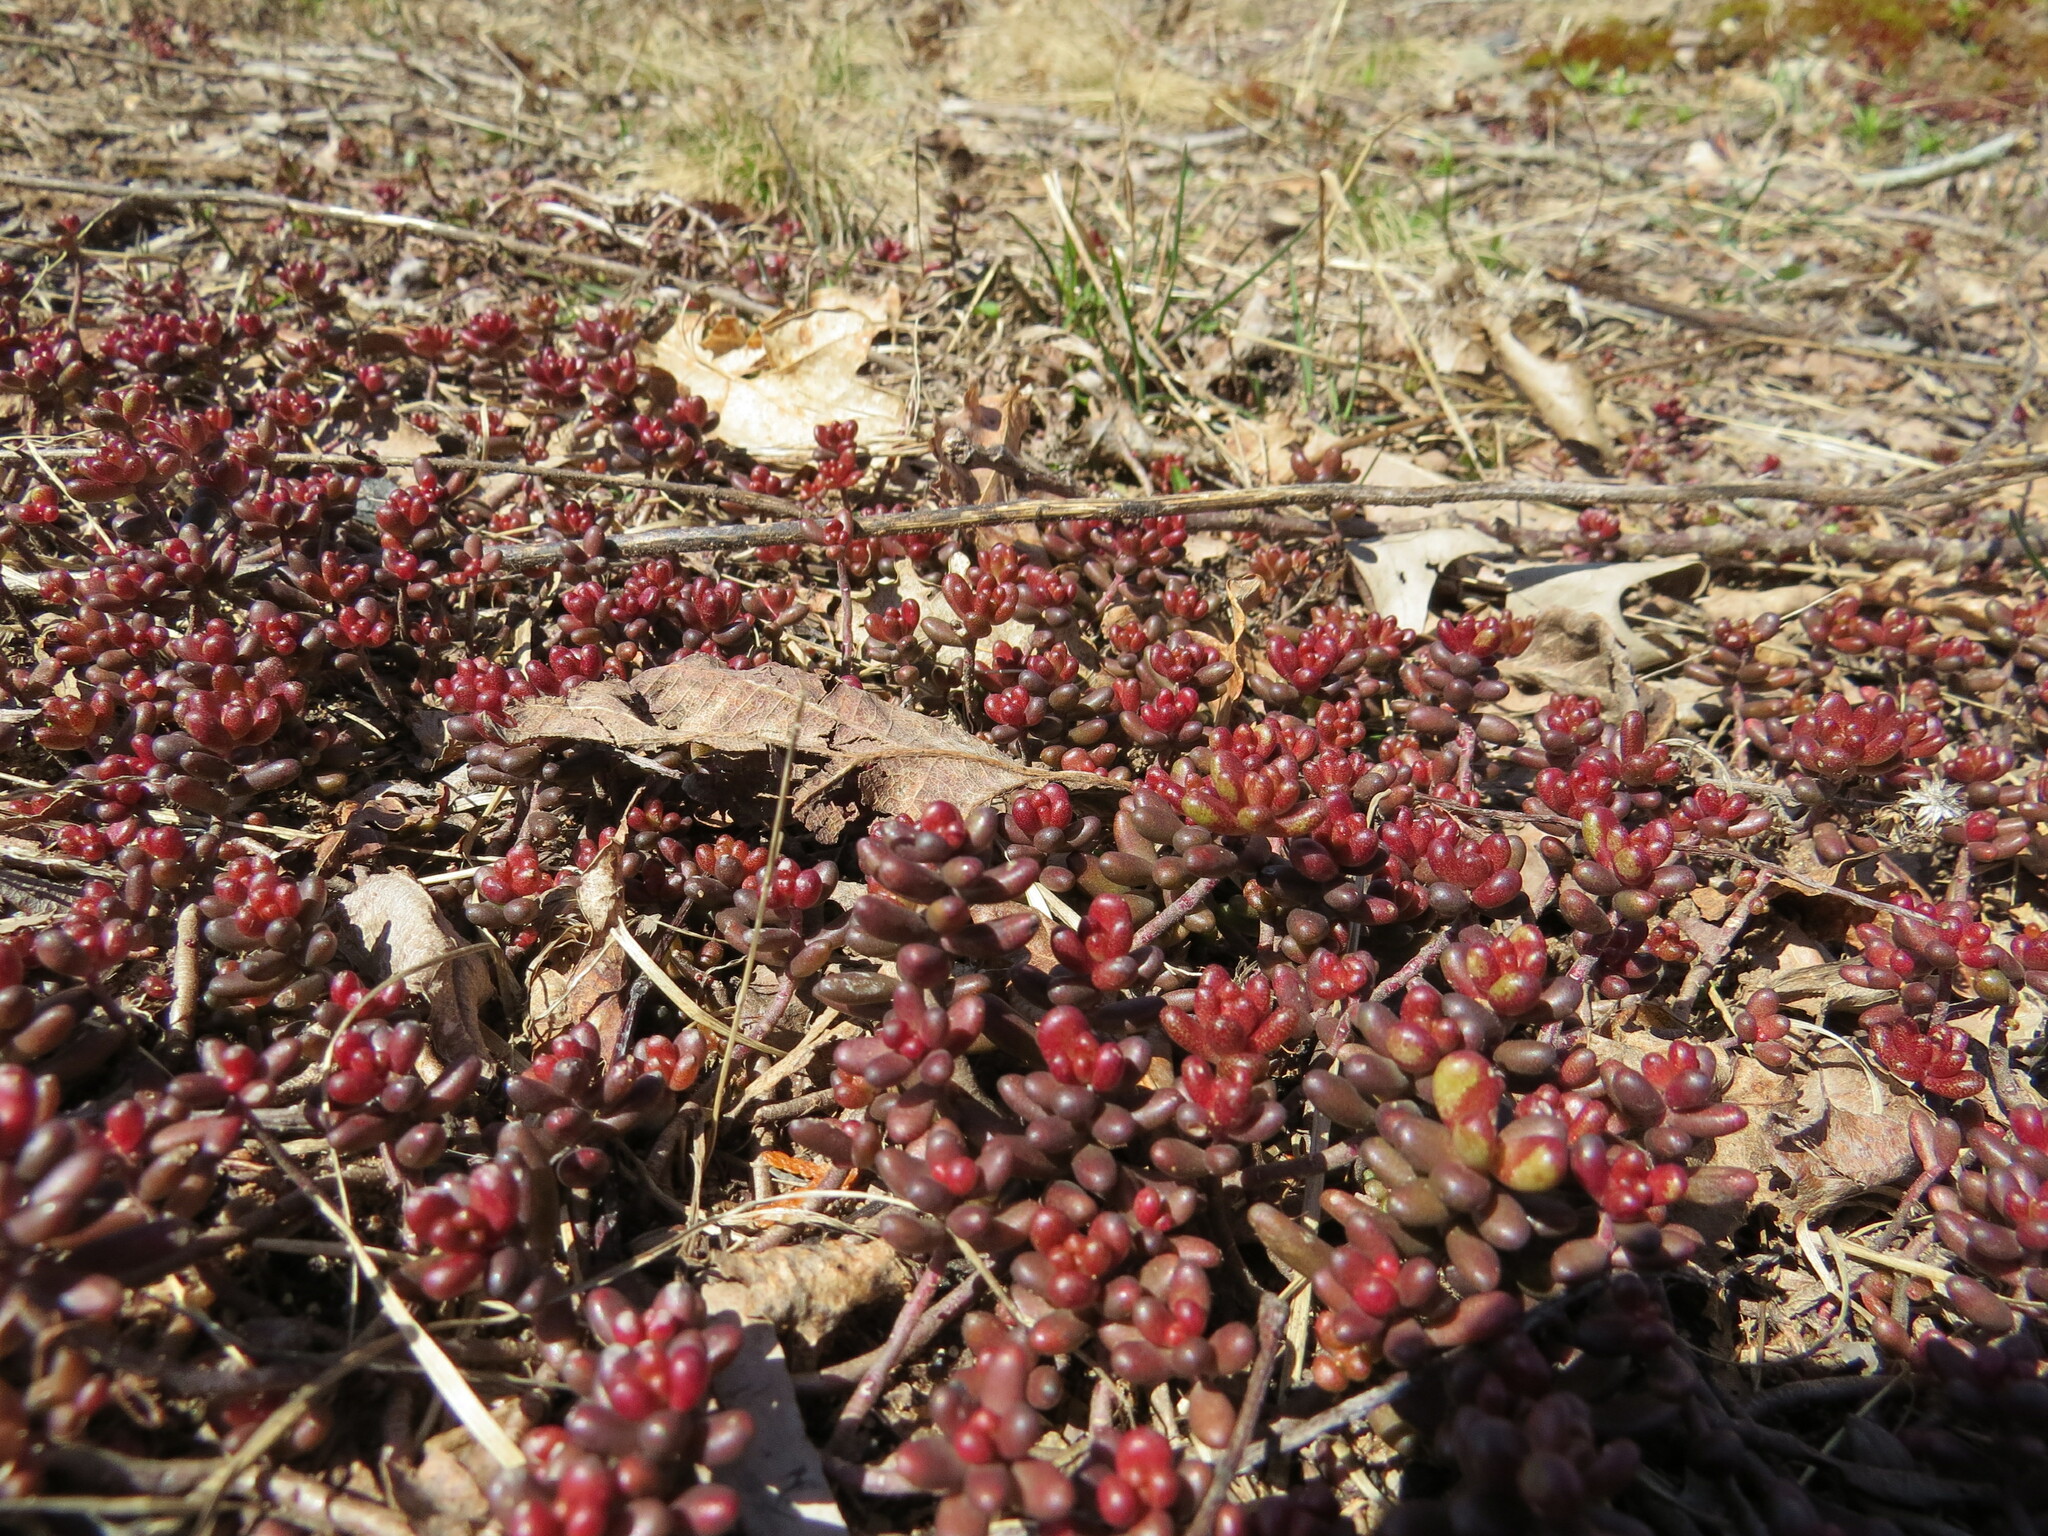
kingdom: Plantae
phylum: Tracheophyta
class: Magnoliopsida
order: Saxifragales
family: Crassulaceae
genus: Sedum
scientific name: Sedum album
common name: White stonecrop
